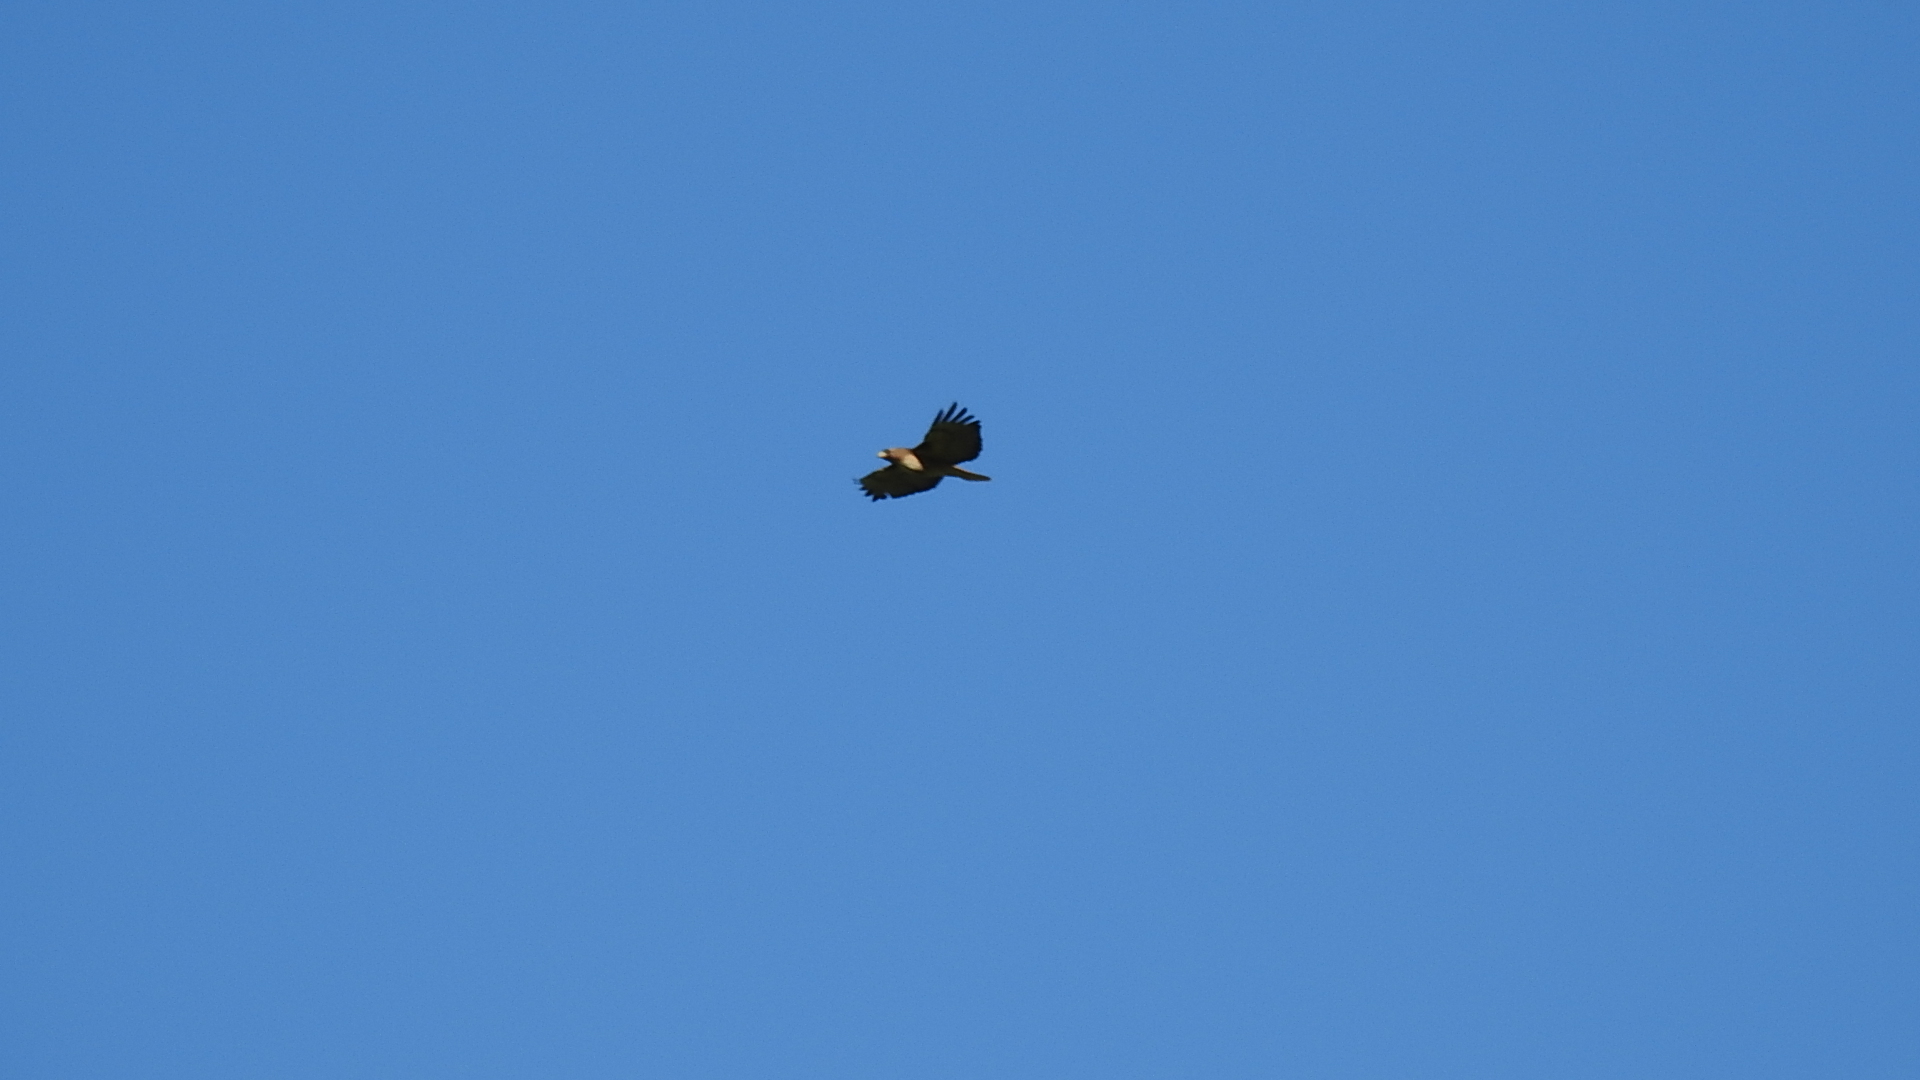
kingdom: Animalia
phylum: Chordata
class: Aves
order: Accipitriformes
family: Accipitridae
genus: Buteo
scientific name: Buteo jamaicensis
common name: Red-tailed hawk
